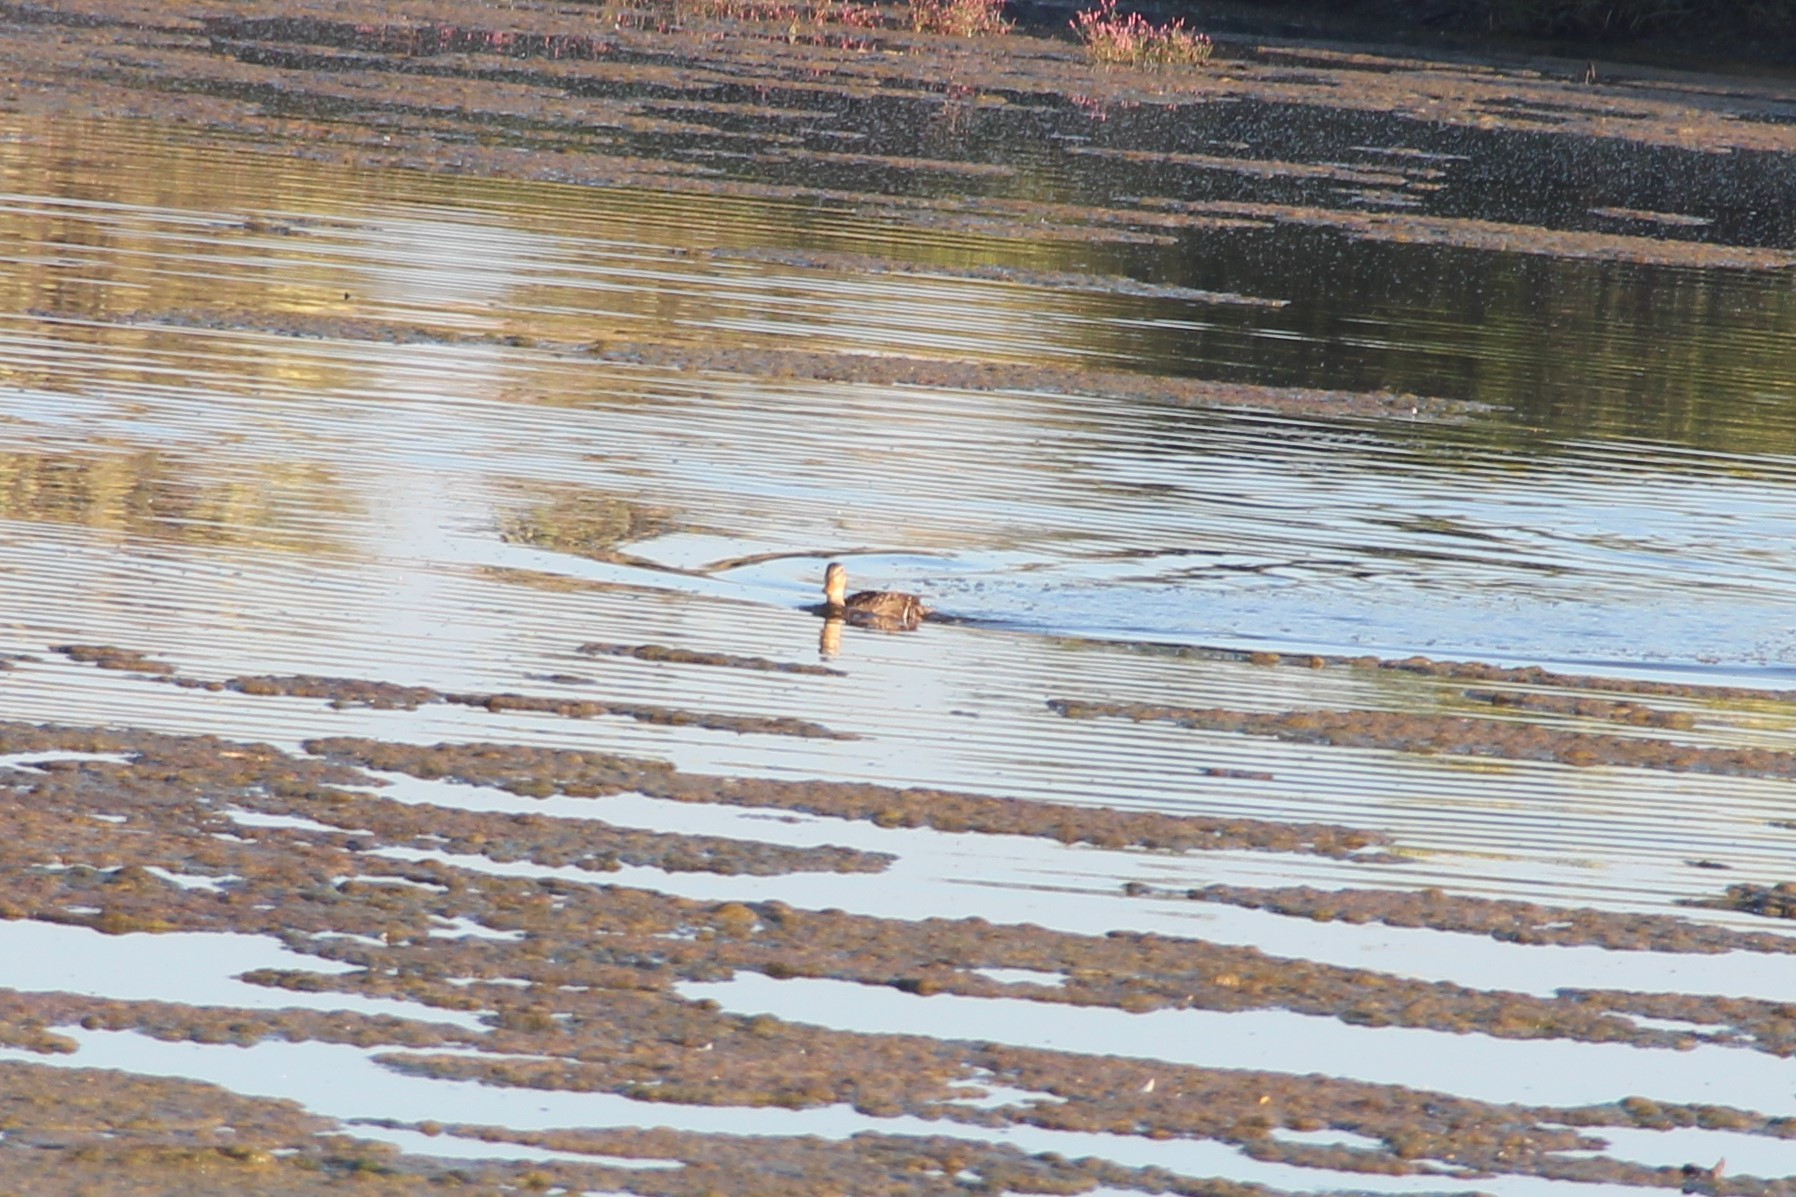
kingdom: Animalia
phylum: Chordata
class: Aves
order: Anseriformes
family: Anatidae
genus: Anas
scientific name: Anas platyrhynchos
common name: Mallard
